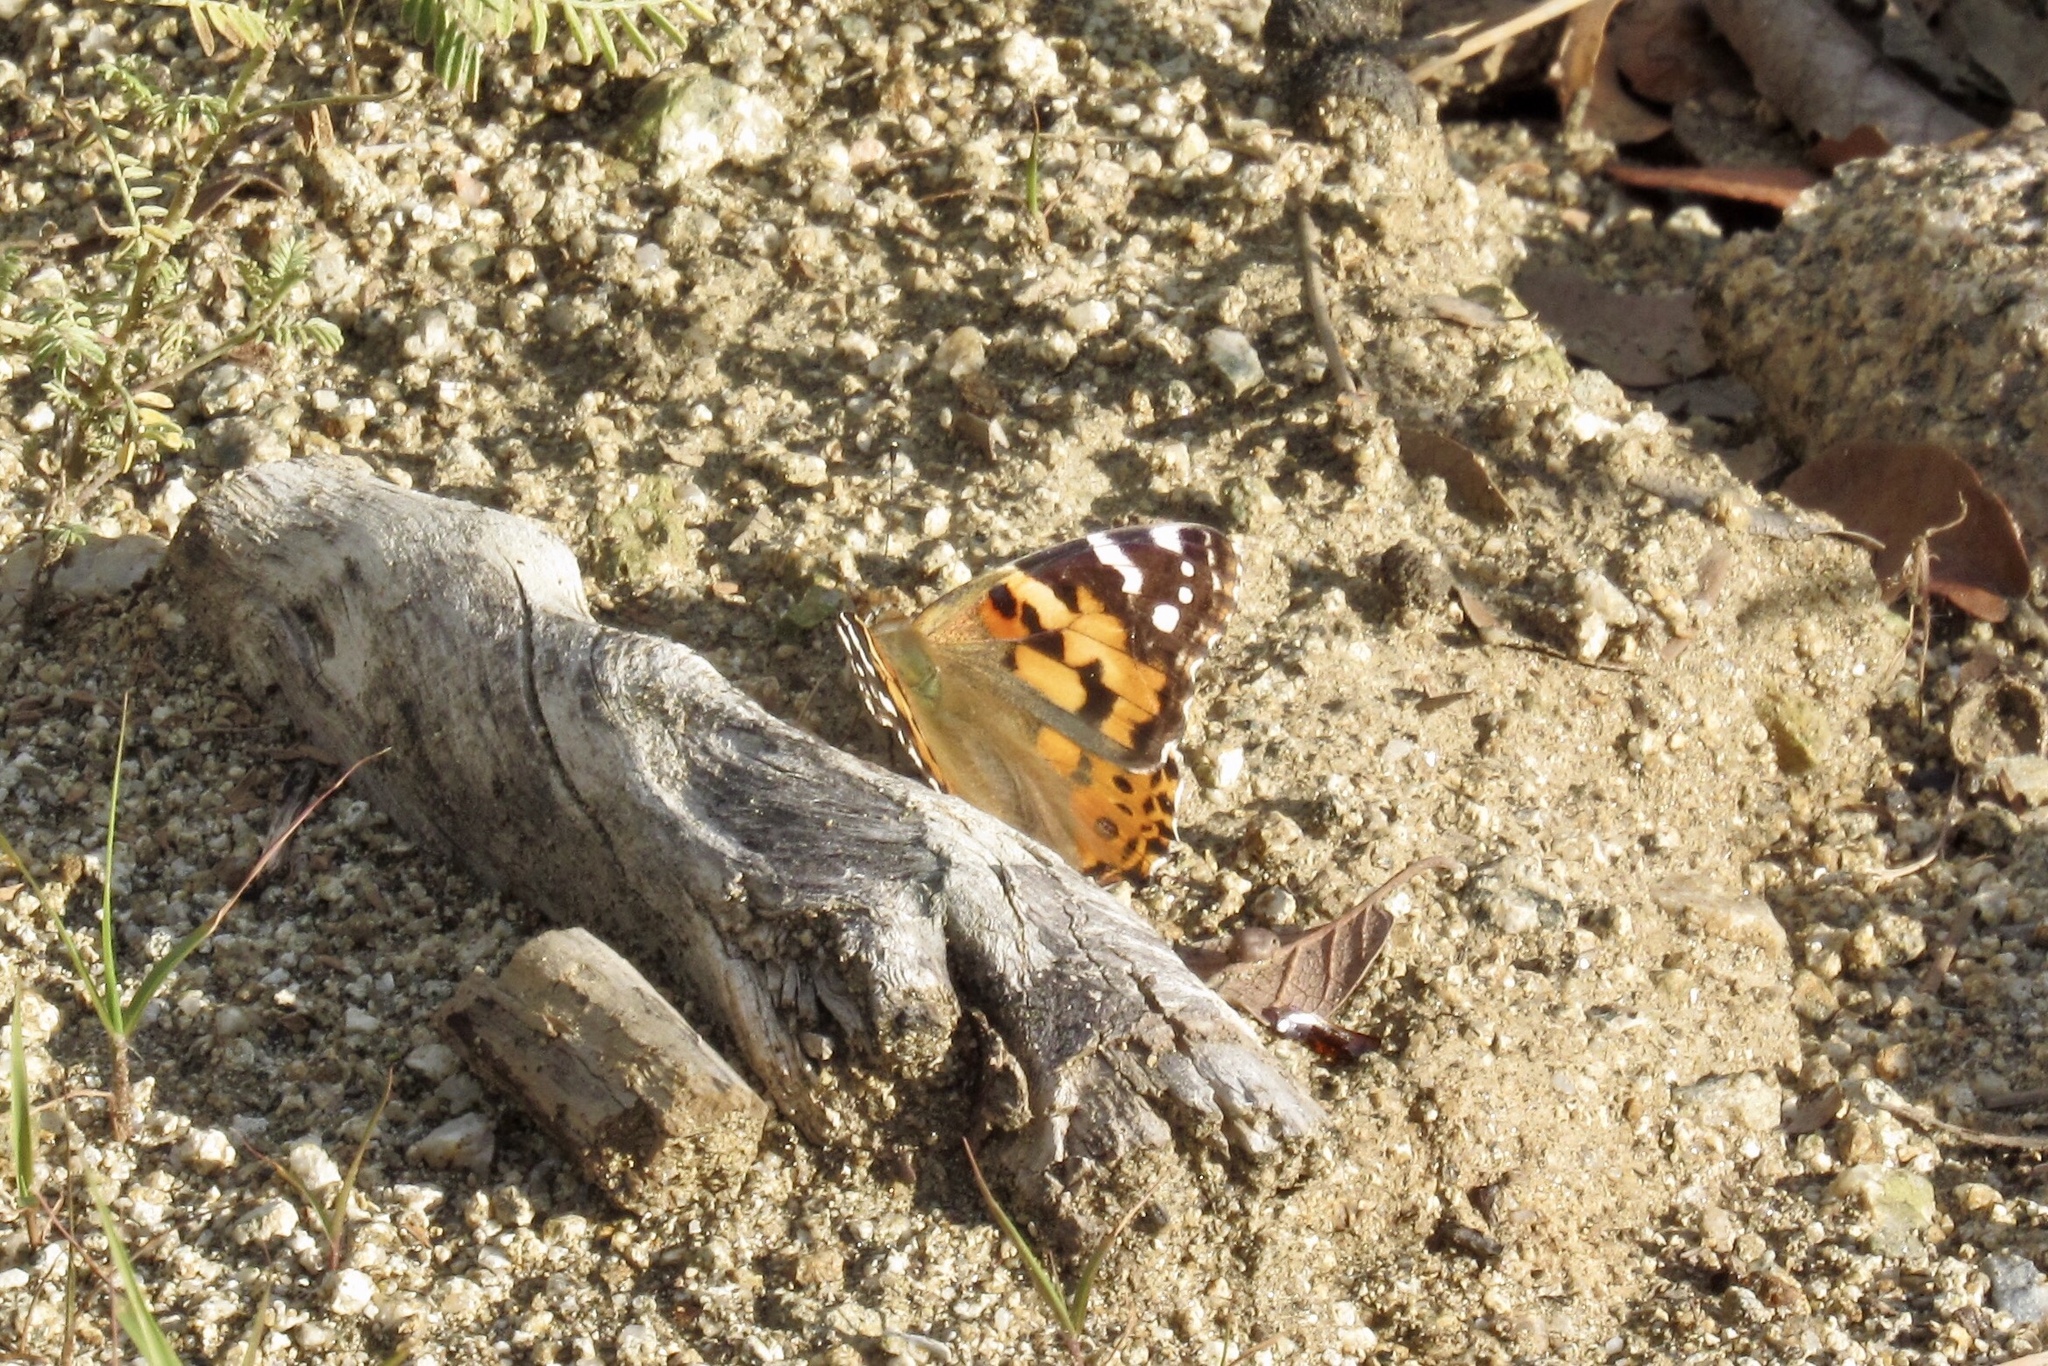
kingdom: Animalia
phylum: Arthropoda
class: Insecta
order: Lepidoptera
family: Nymphalidae
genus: Vanessa
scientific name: Vanessa cardui
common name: Painted lady
